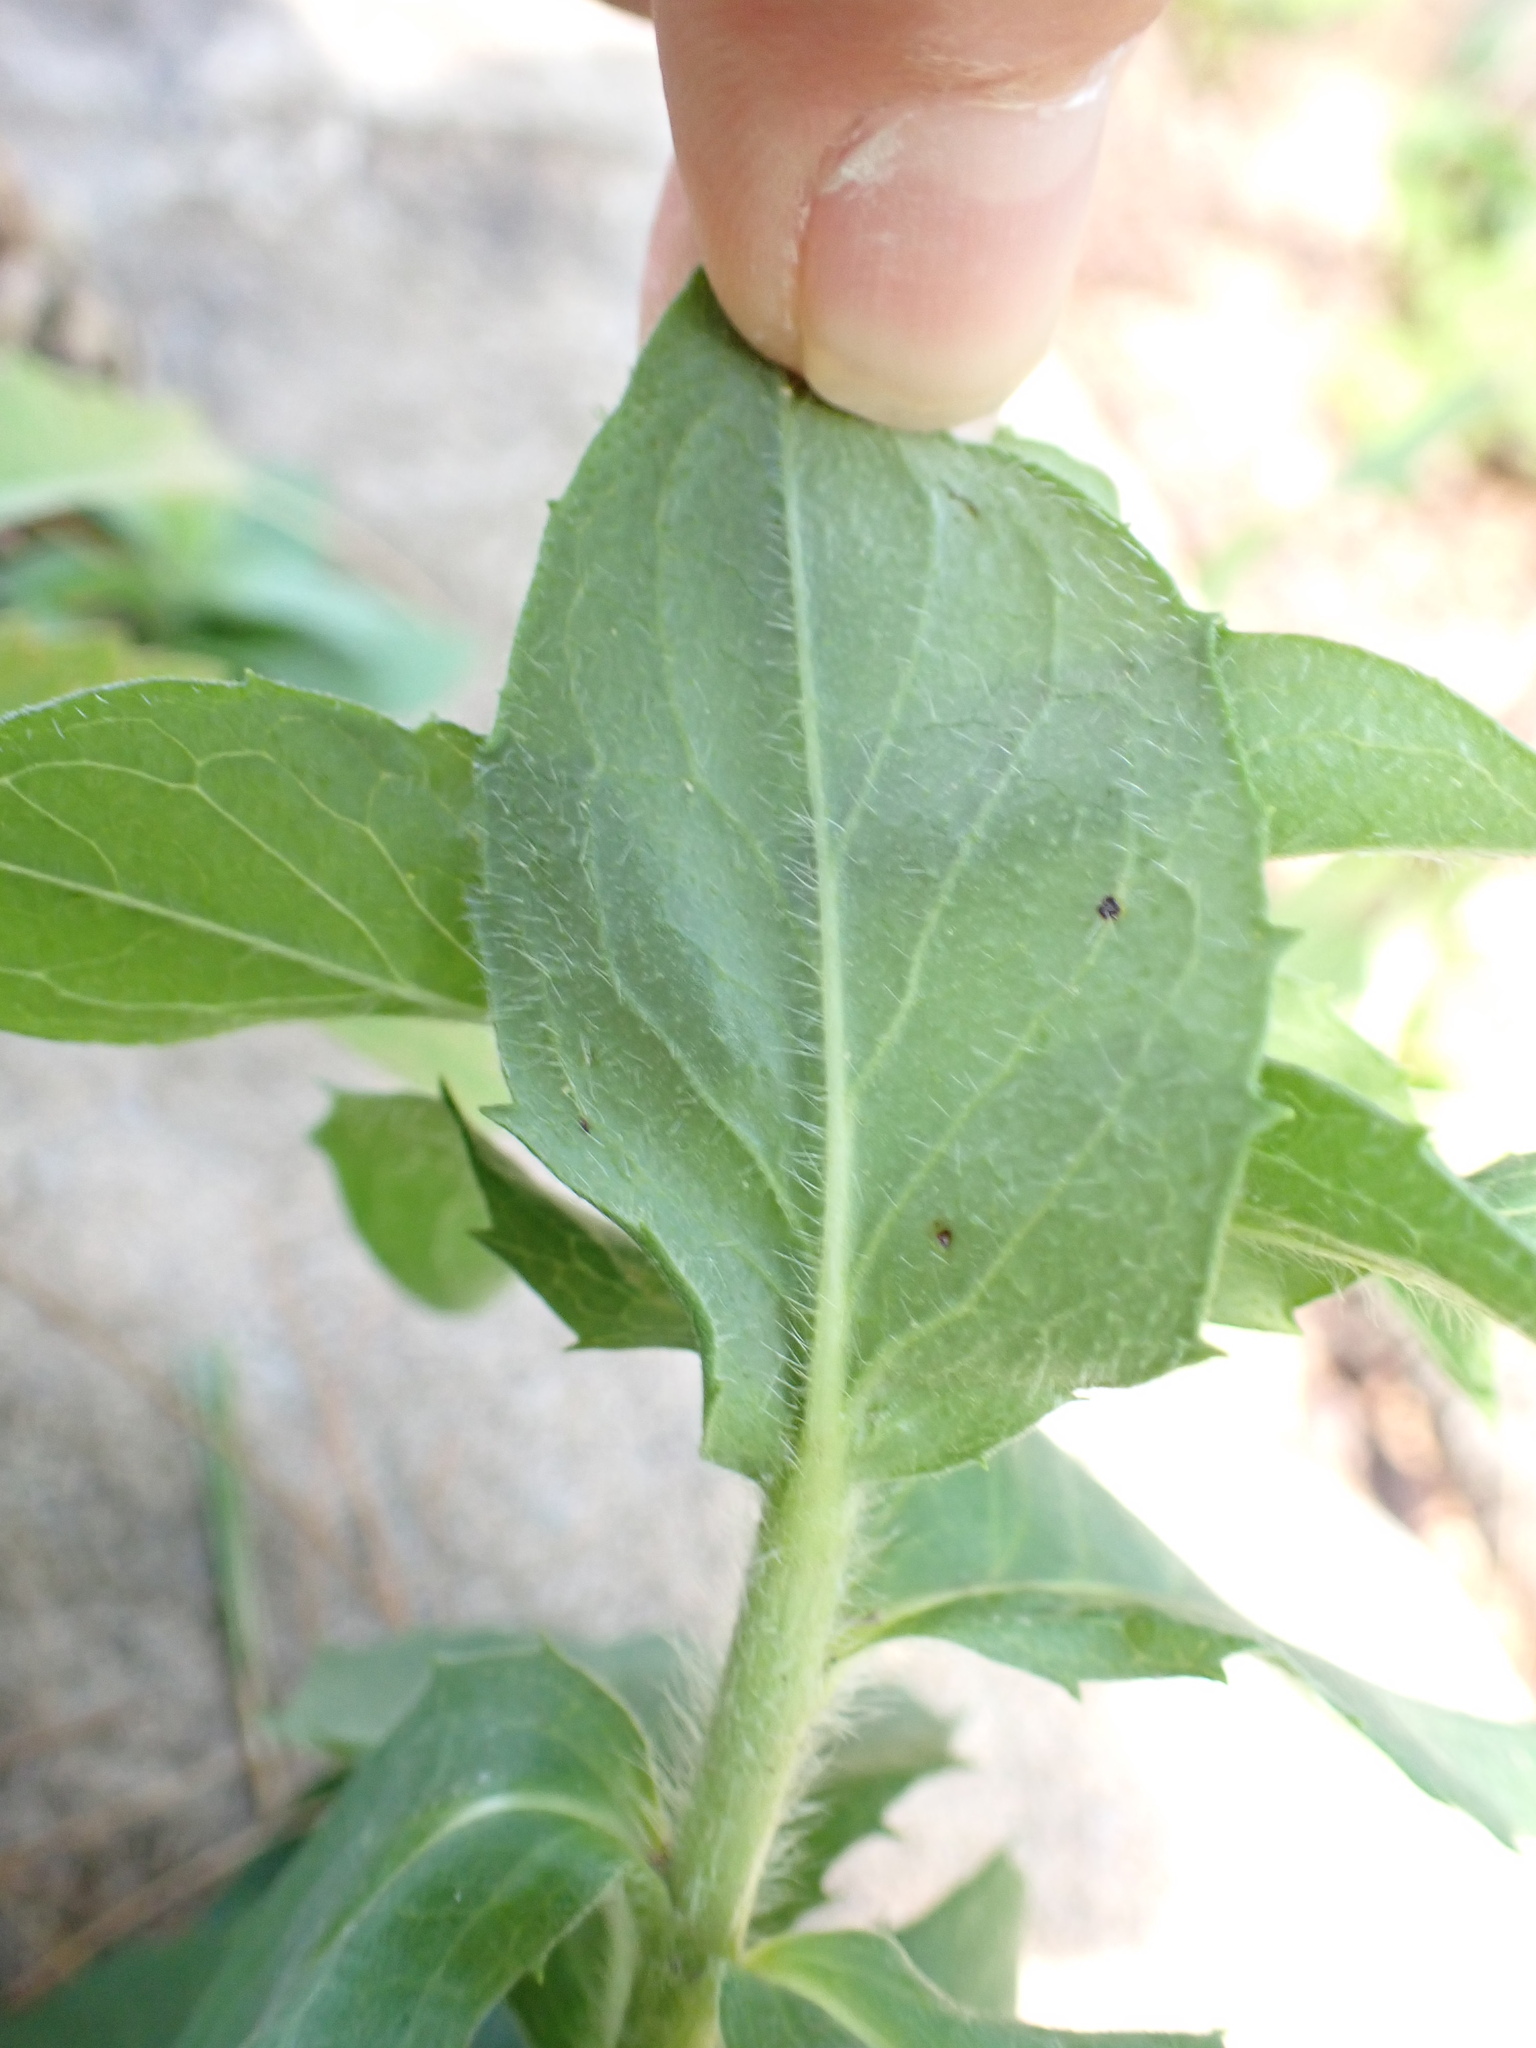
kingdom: Plantae
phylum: Tracheophyta
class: Magnoliopsida
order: Asterales
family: Asteraceae
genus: Hieracium
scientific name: Hieracium sabaudum
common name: New england hawkweed
